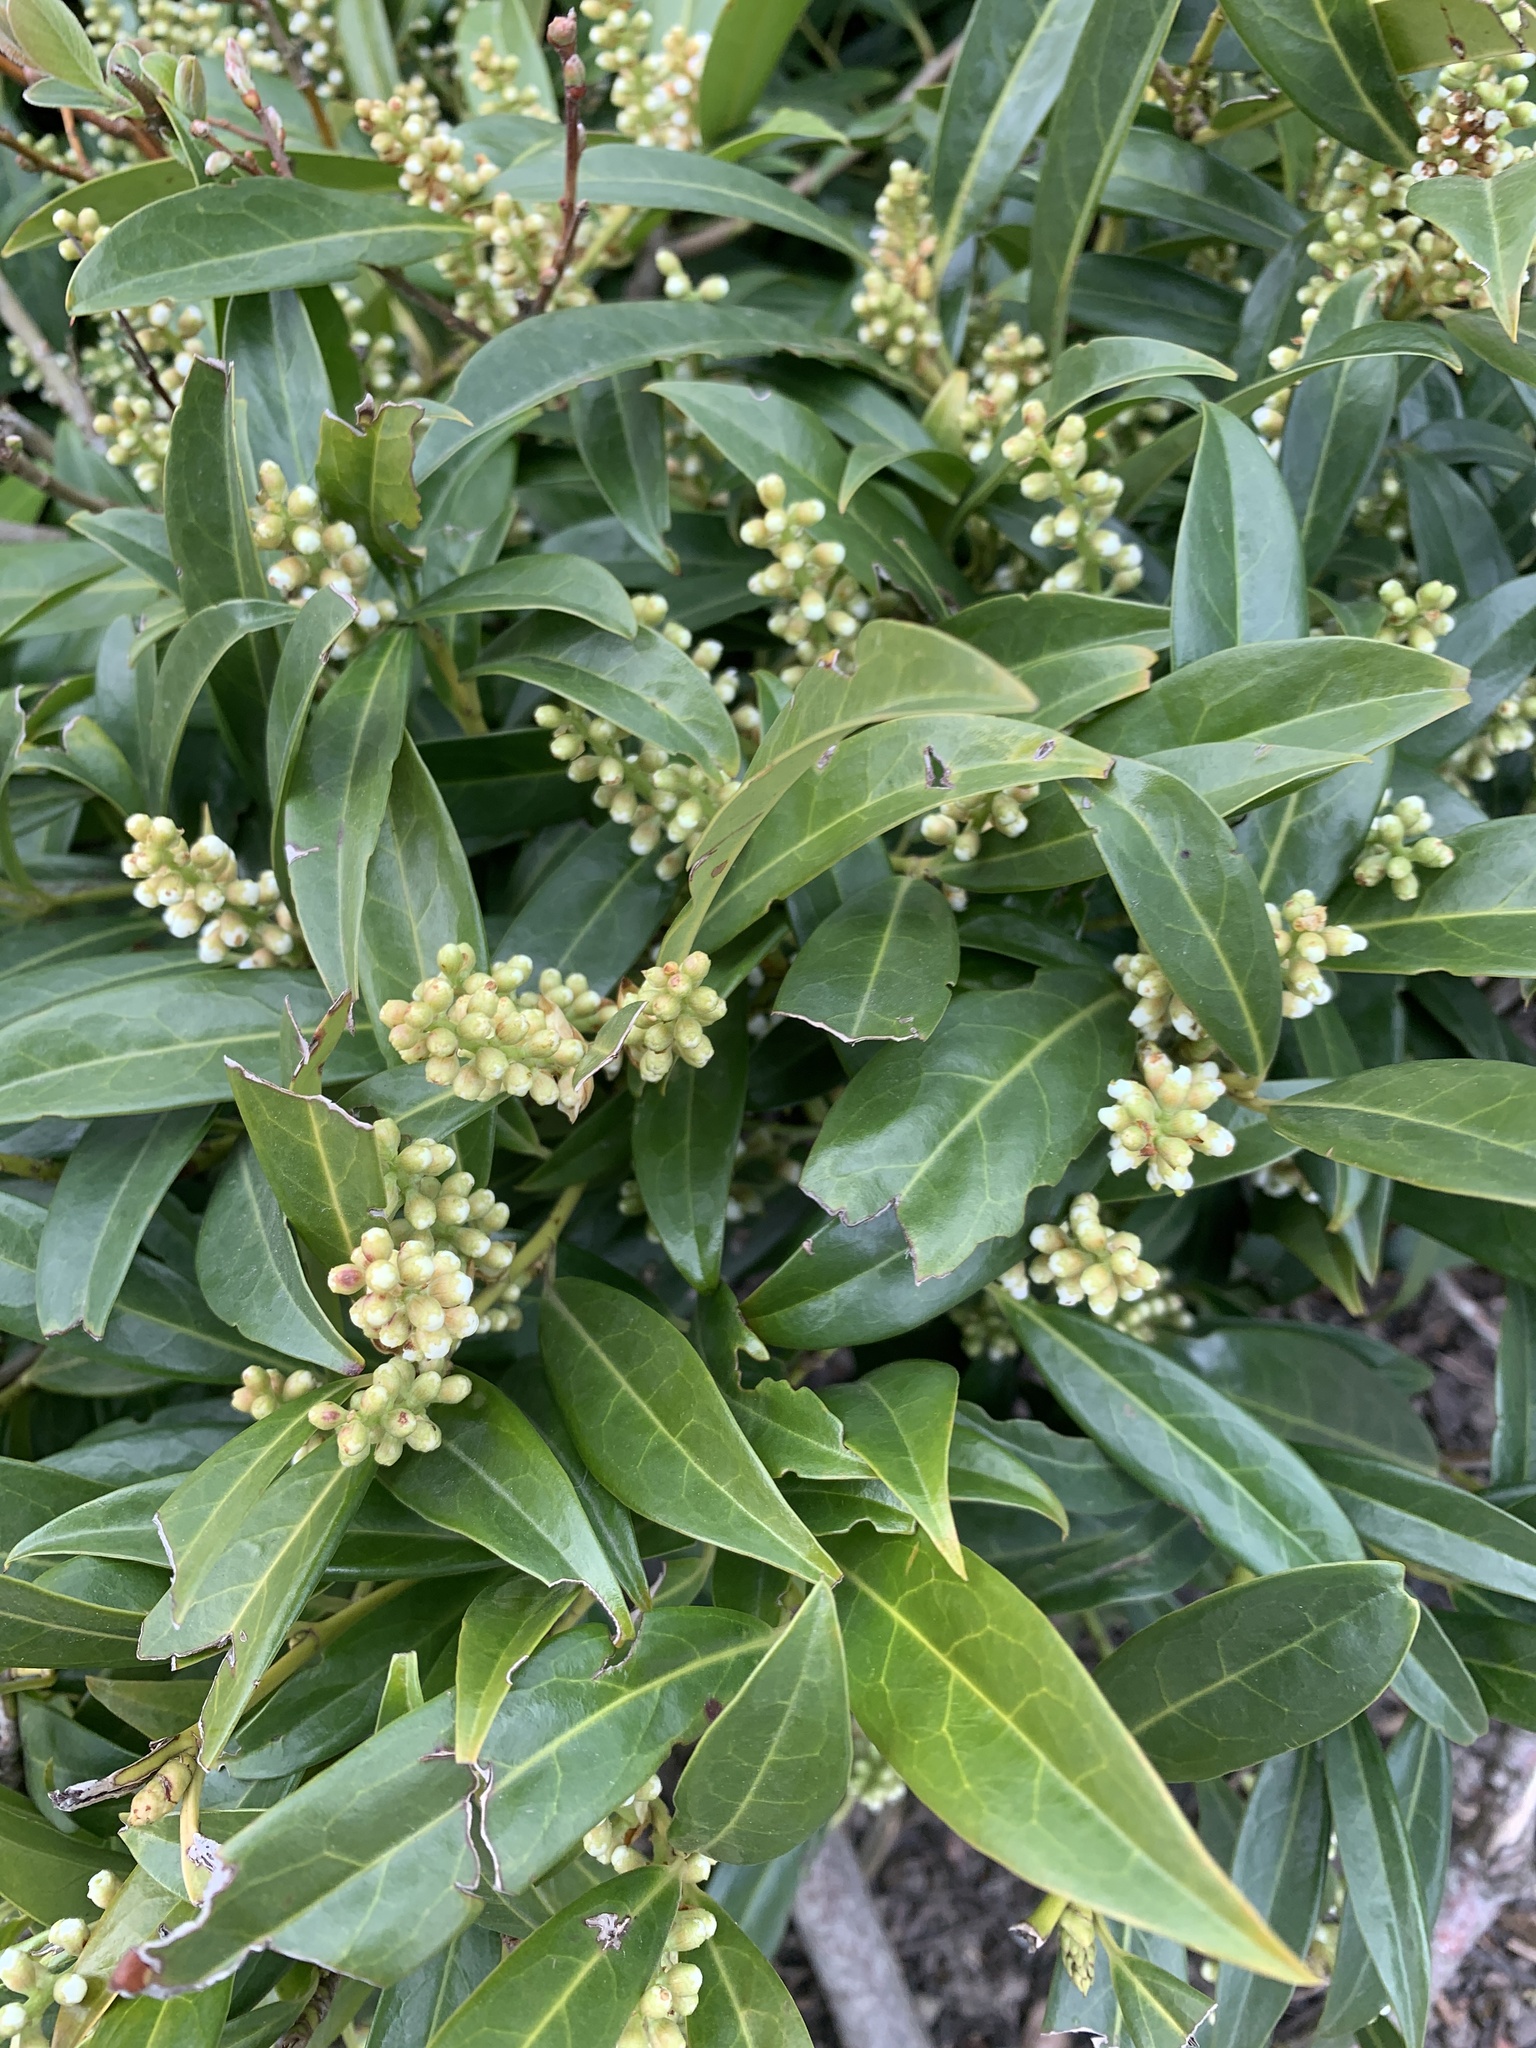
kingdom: Plantae
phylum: Tracheophyta
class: Magnoliopsida
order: Rosales
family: Rosaceae
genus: Prunus
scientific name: Prunus laurocerasus
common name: Cherry laurel
